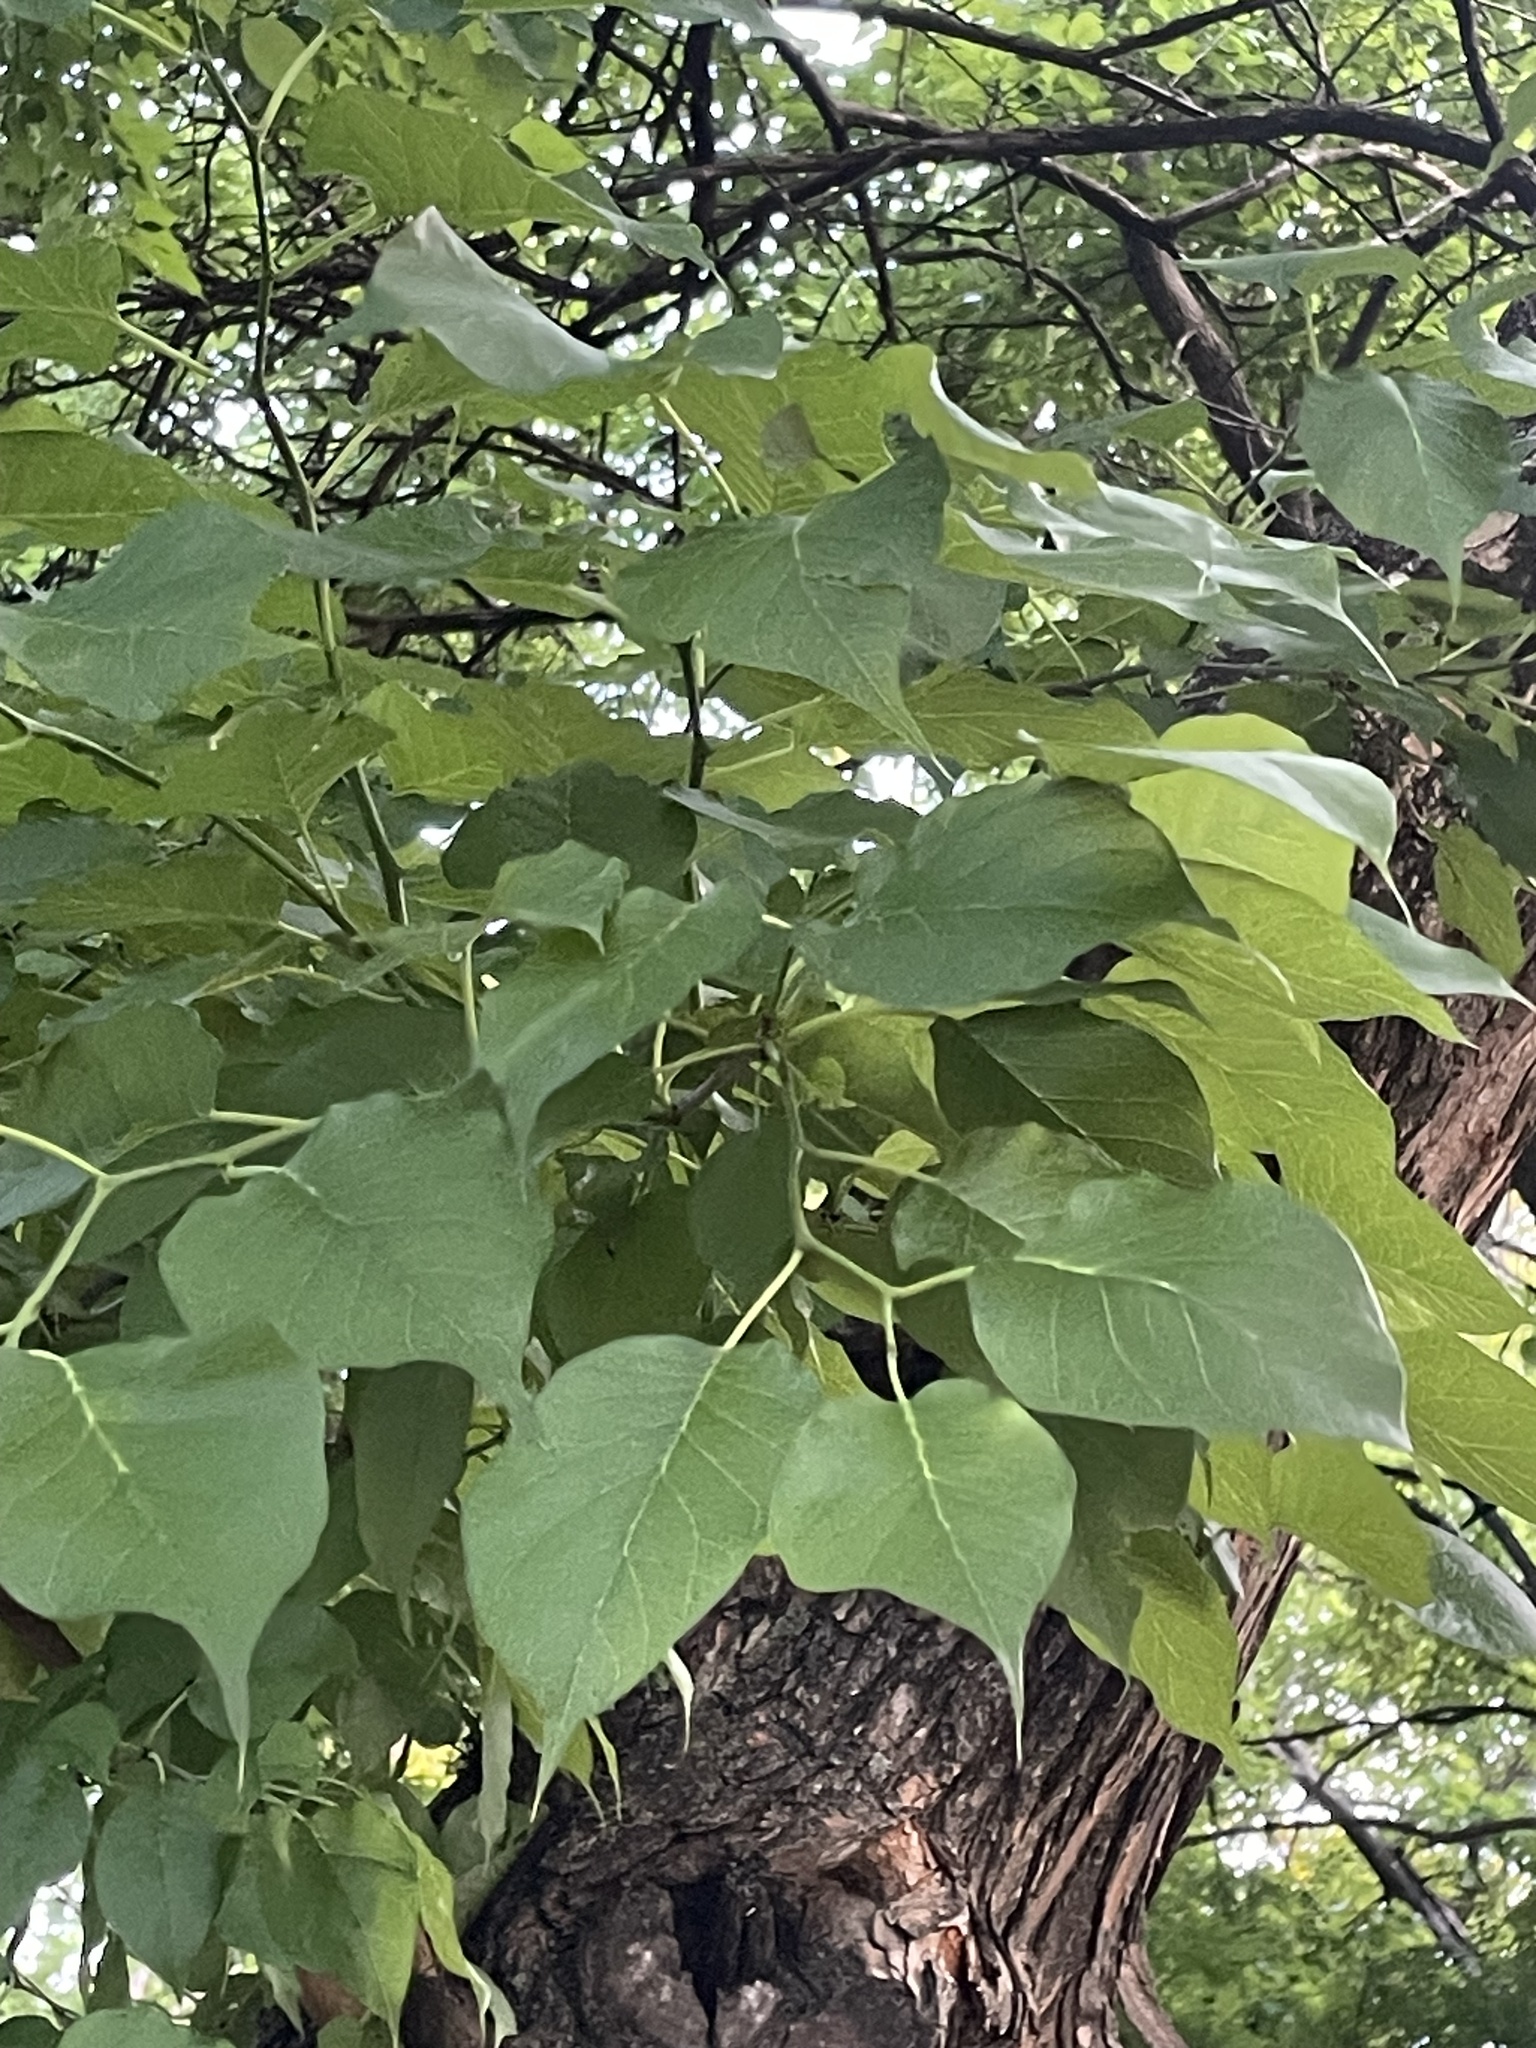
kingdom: Plantae
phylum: Tracheophyta
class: Magnoliopsida
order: Rosales
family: Moraceae
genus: Maclura
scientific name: Maclura pomifera
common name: Osage-orange
